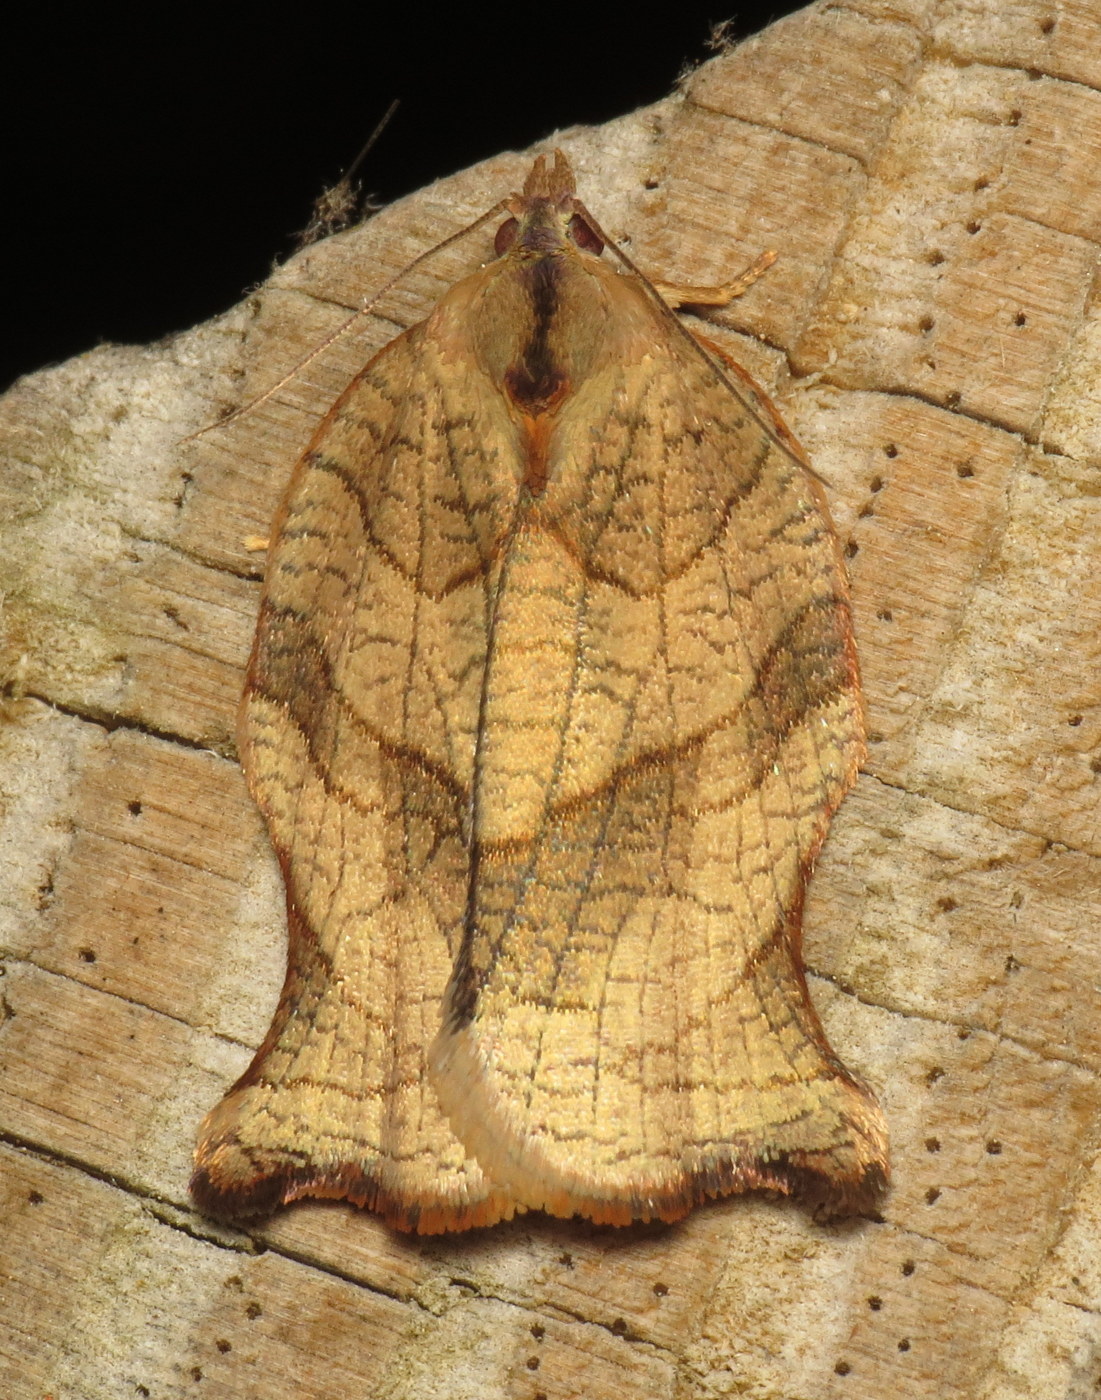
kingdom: Animalia
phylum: Arthropoda
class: Insecta
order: Lepidoptera
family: Tortricidae
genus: Archips
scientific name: Archips purpurana
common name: Omnivorous leafroller
